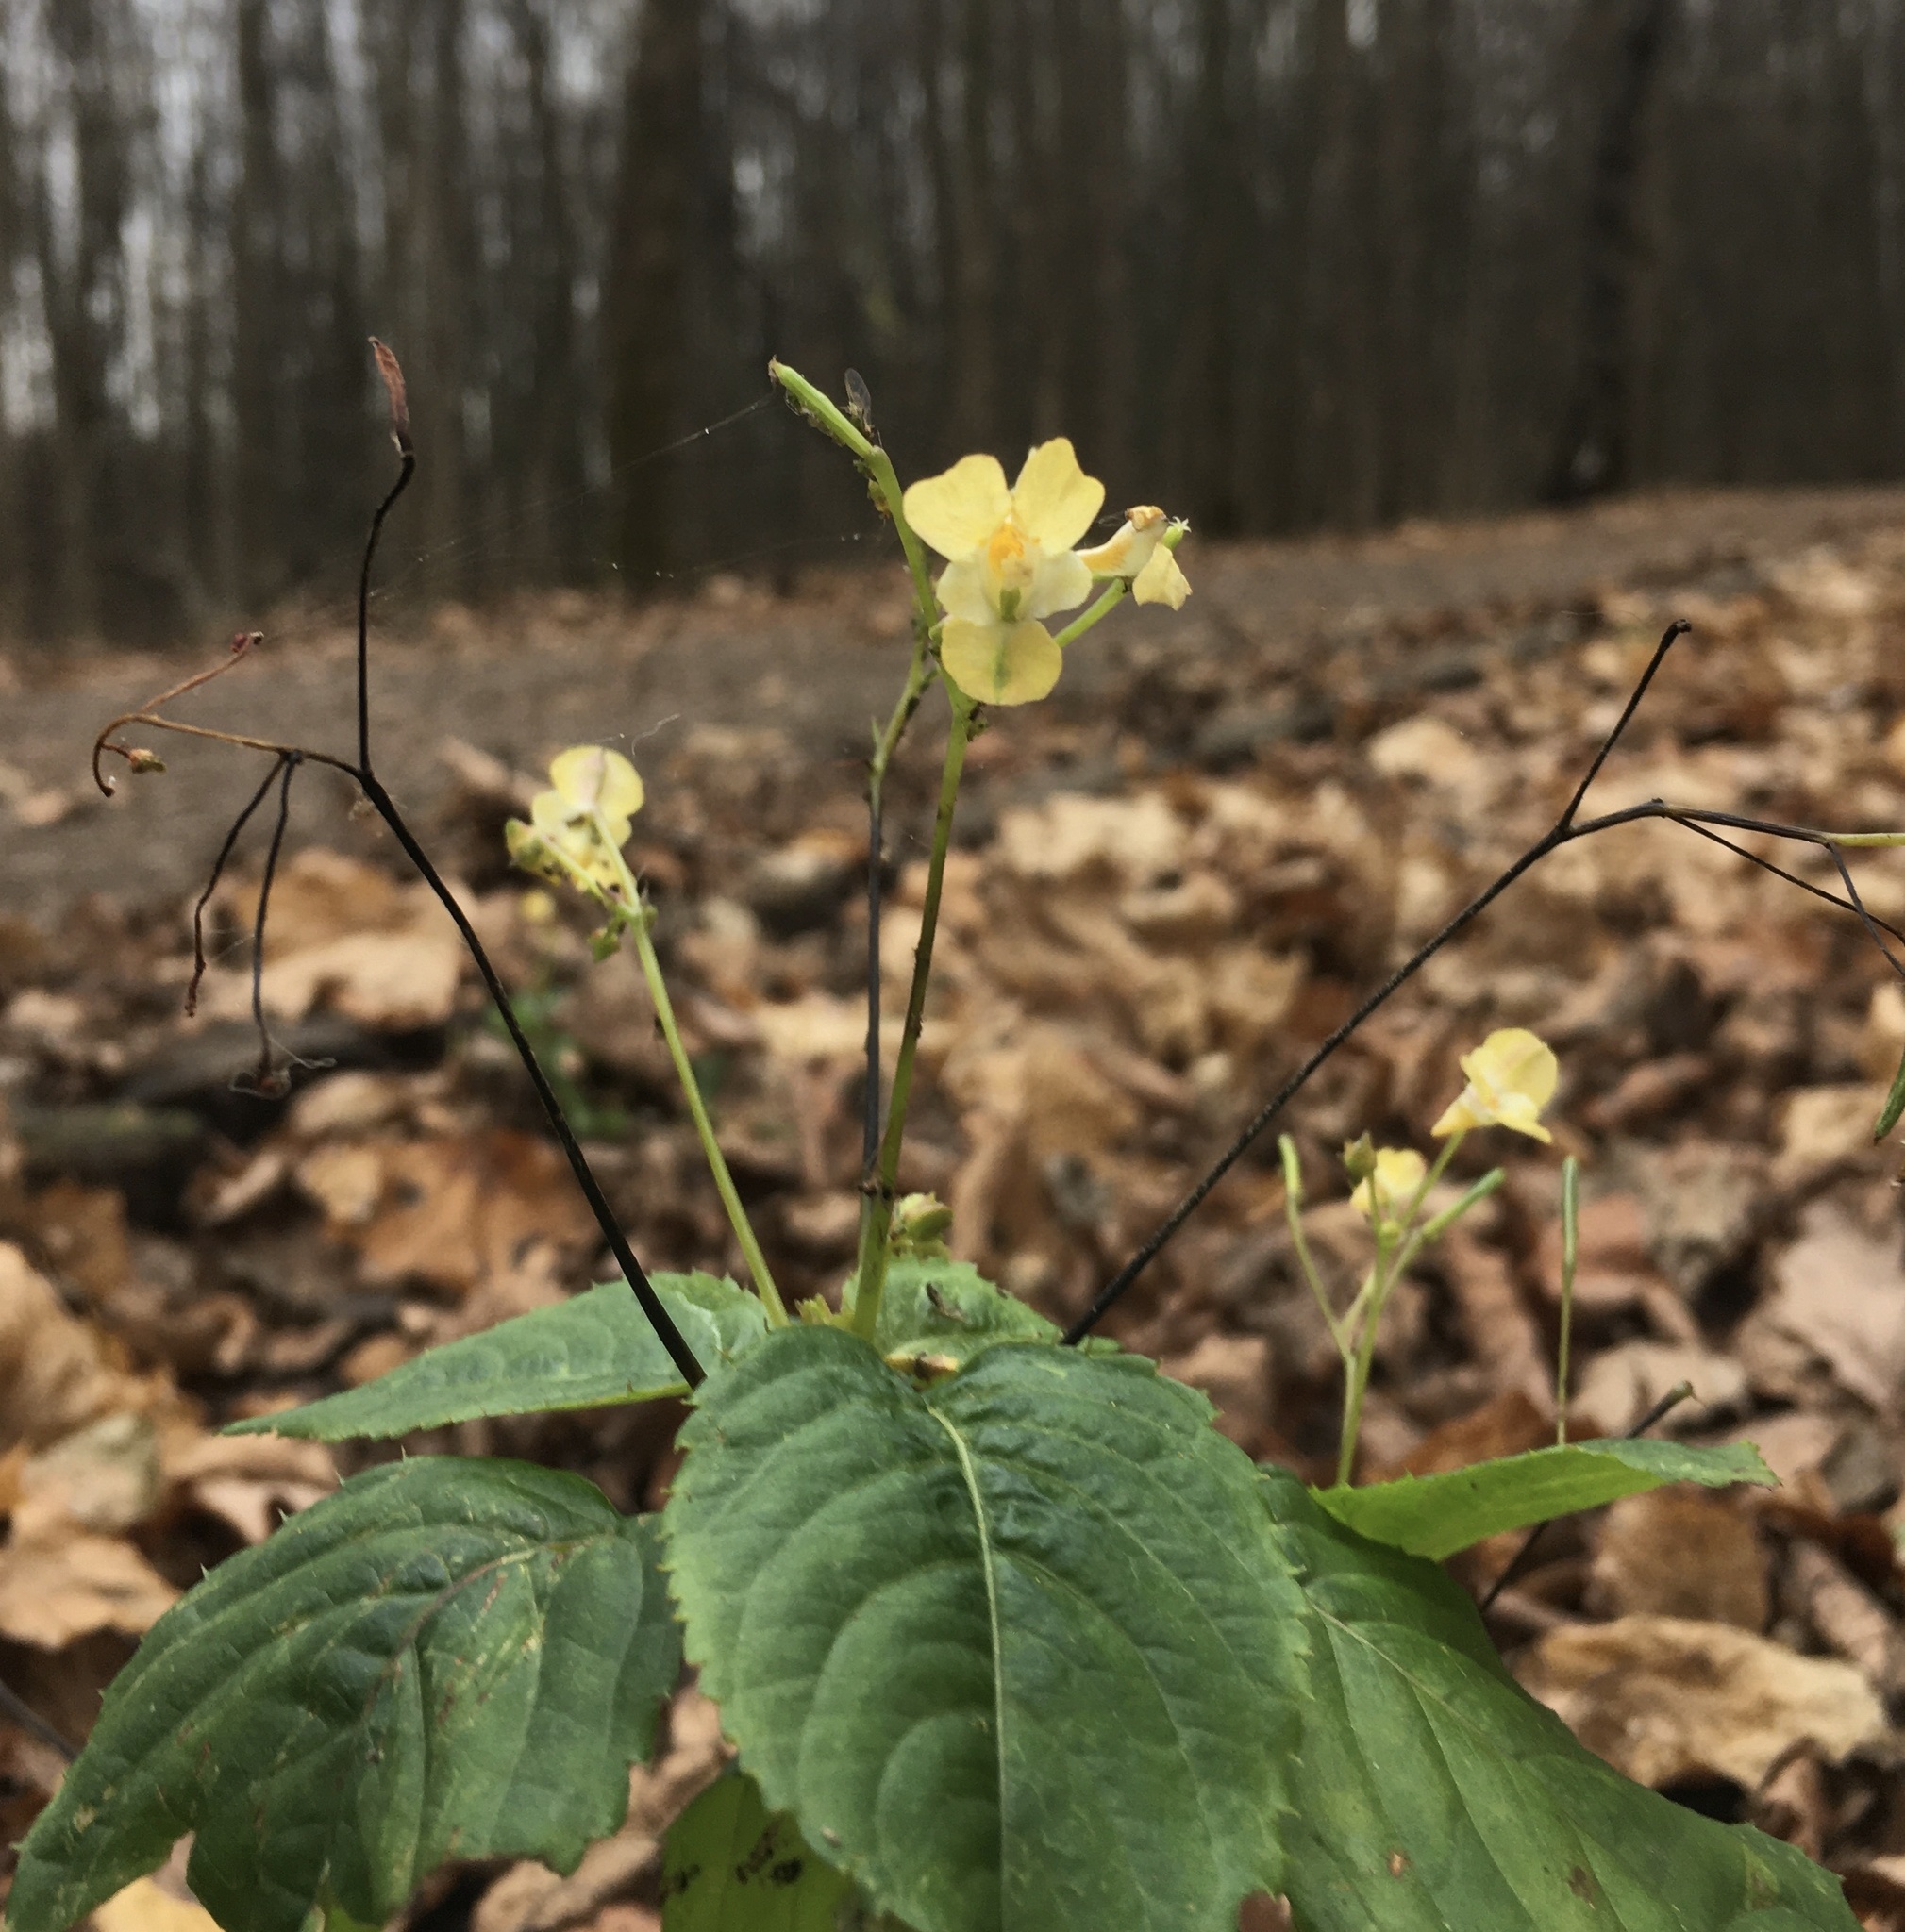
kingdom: Plantae
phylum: Tracheophyta
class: Magnoliopsida
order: Ericales
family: Balsaminaceae
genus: Impatiens
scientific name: Impatiens parviflora
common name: Small balsam
